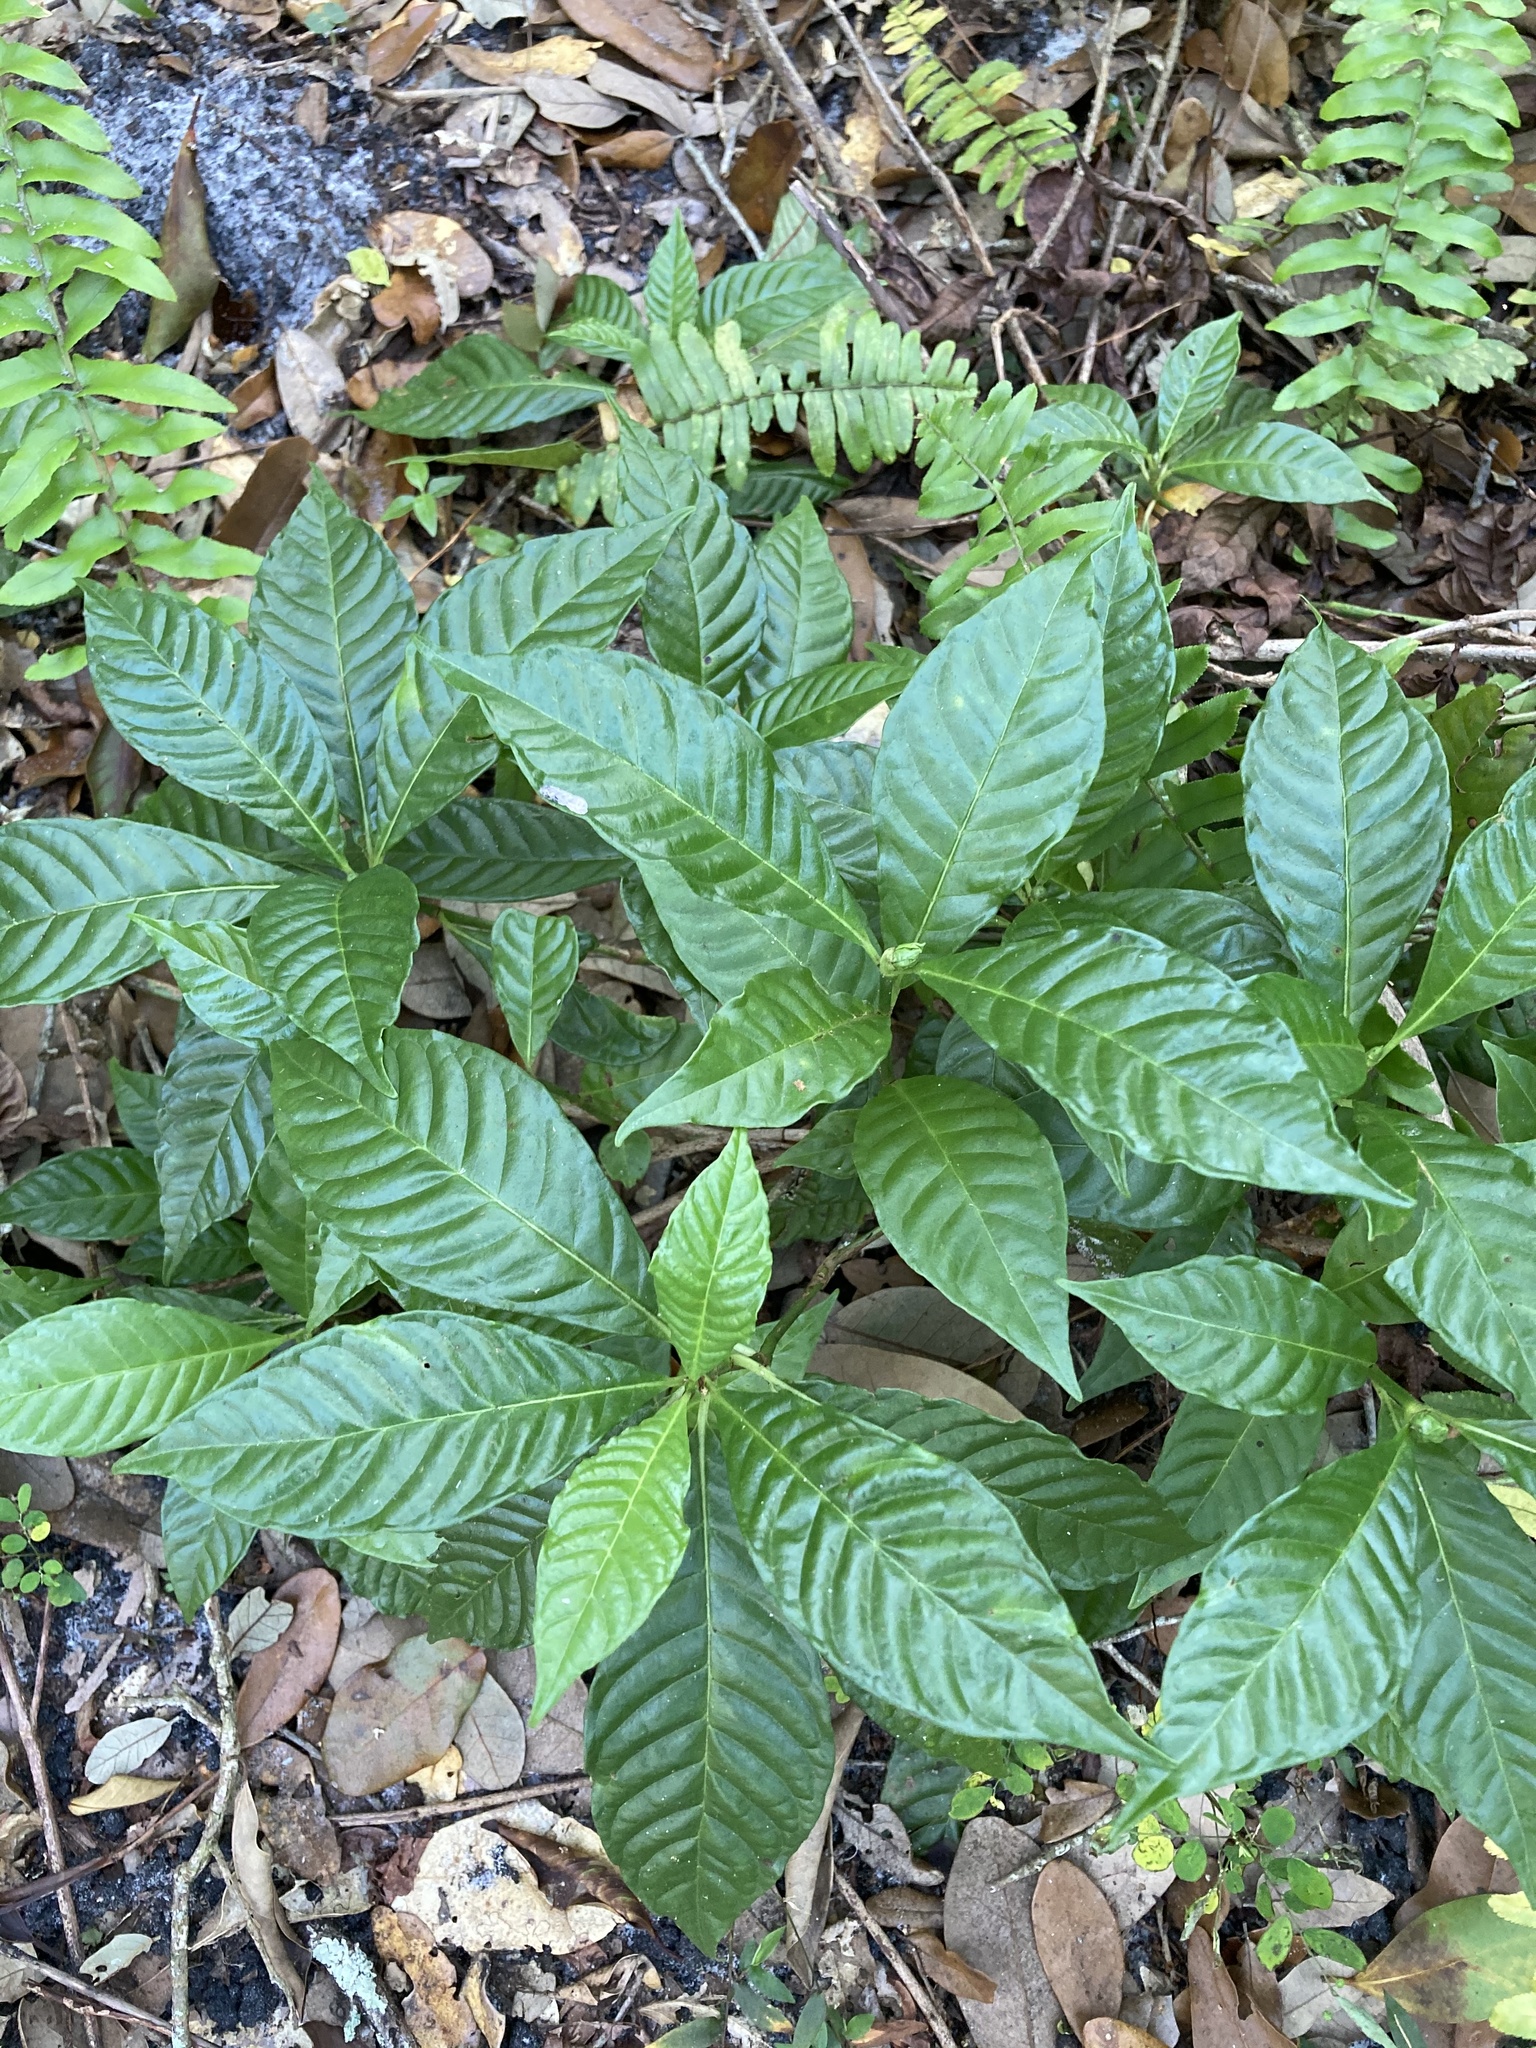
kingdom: Plantae
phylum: Tracheophyta
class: Magnoliopsida
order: Gentianales
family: Rubiaceae
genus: Psychotria
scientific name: Psychotria nervosa
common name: Bastard cankerberry
